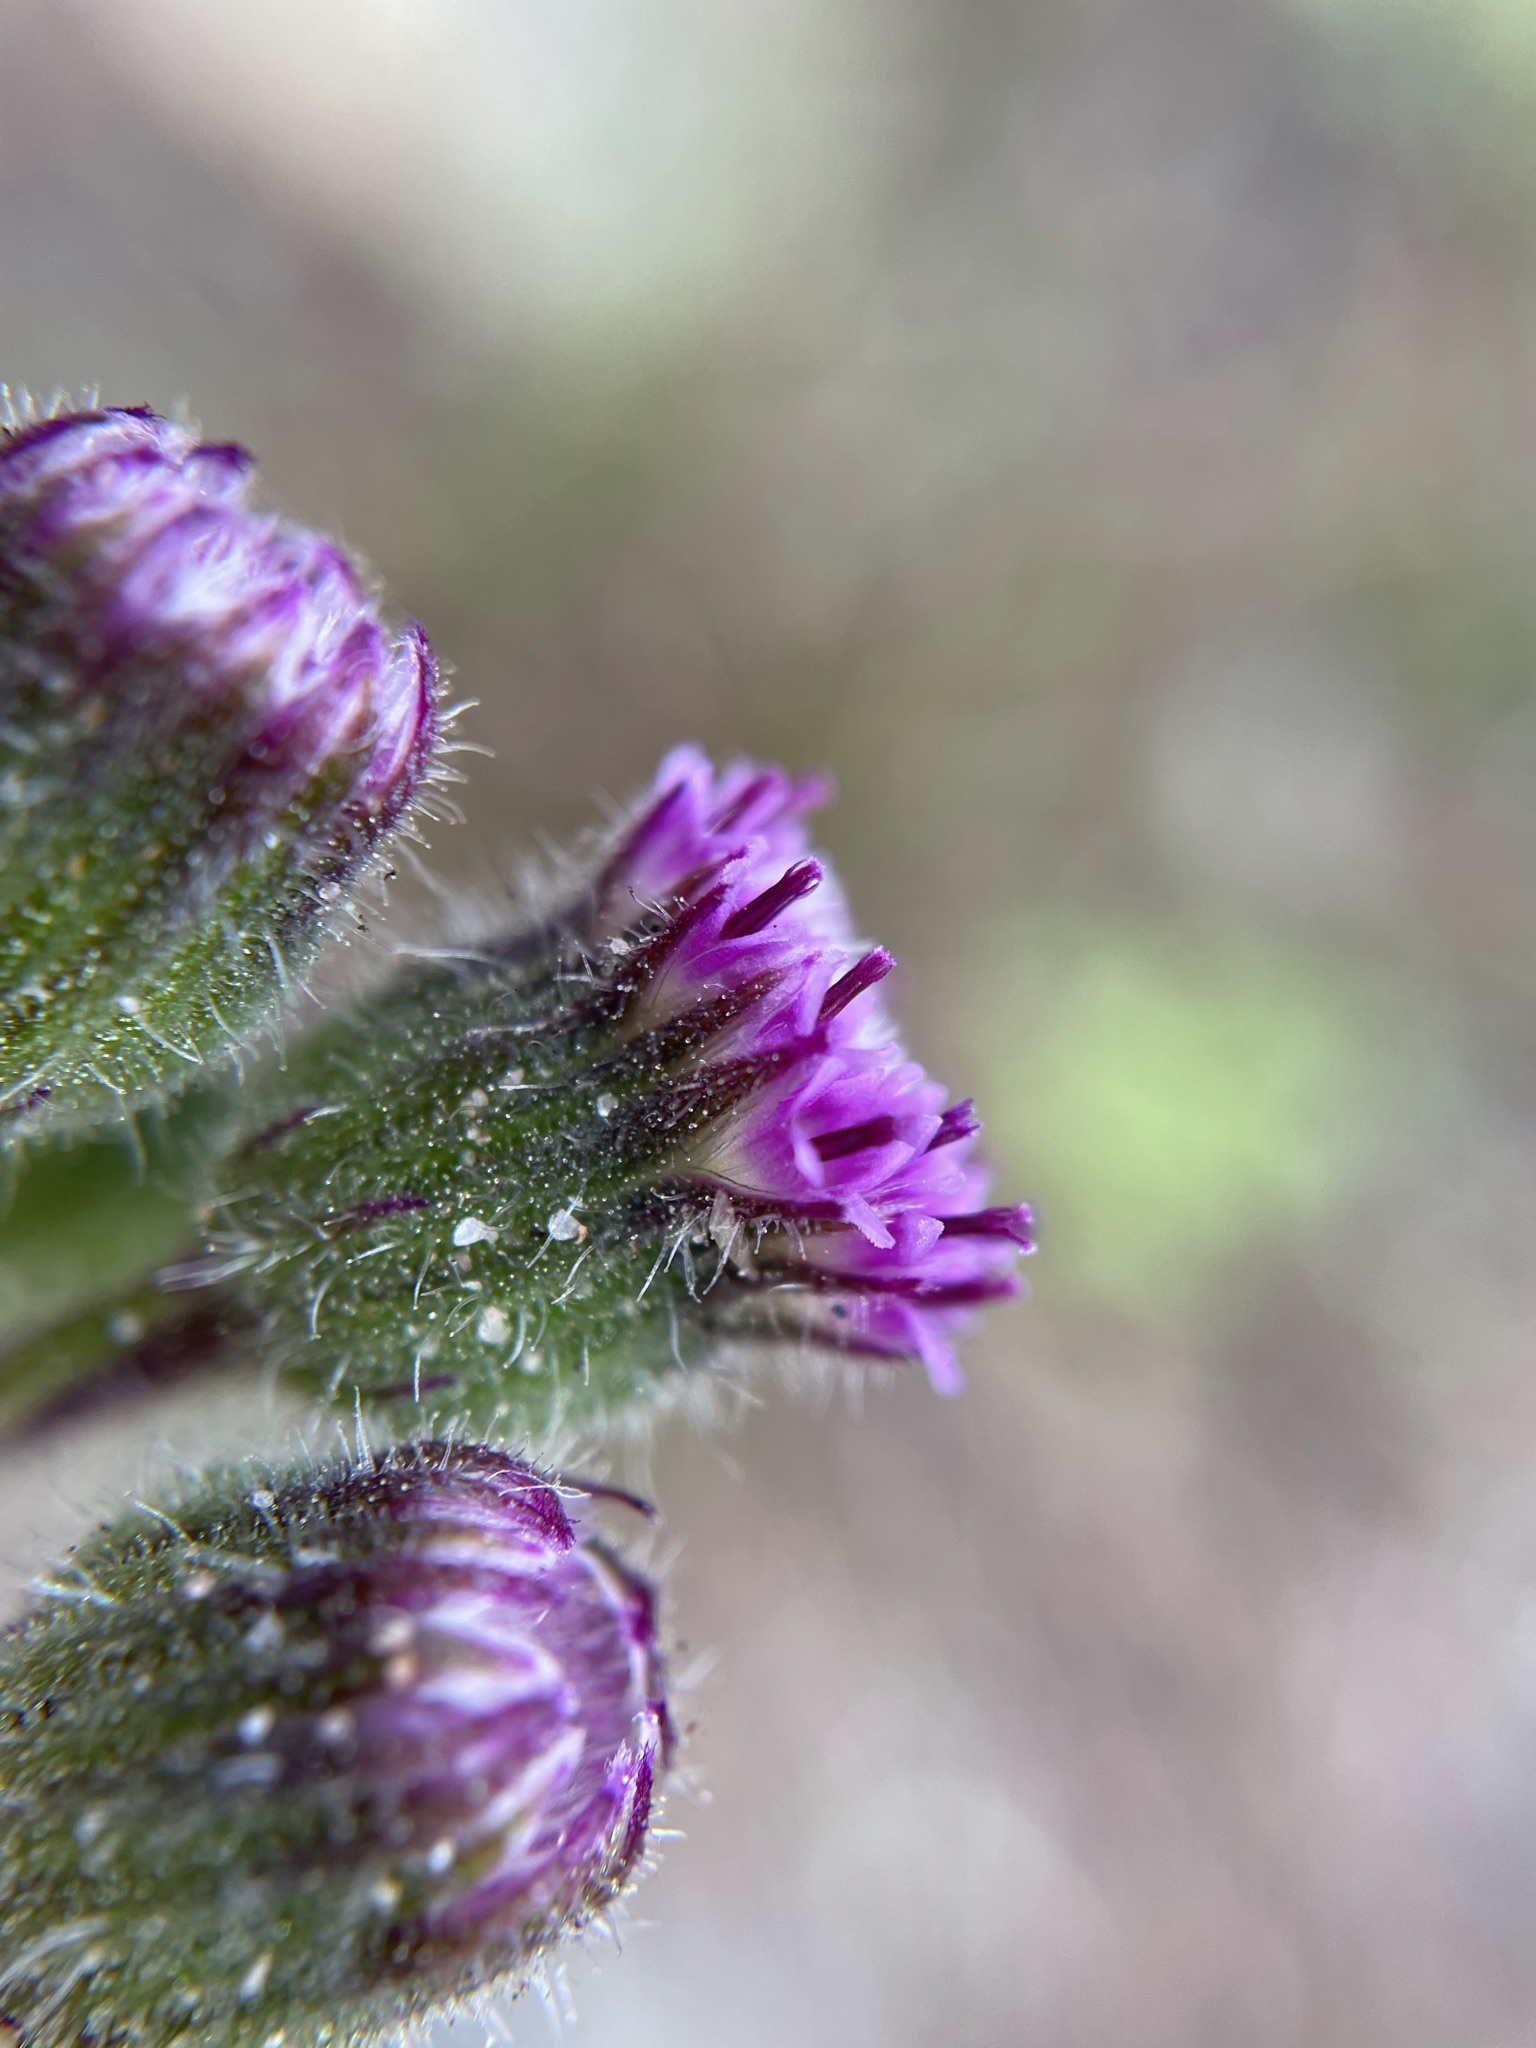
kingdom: Plantae
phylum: Tracheophyta
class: Magnoliopsida
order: Asterales
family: Asteraceae
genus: Senecio
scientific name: Senecio purpureus
